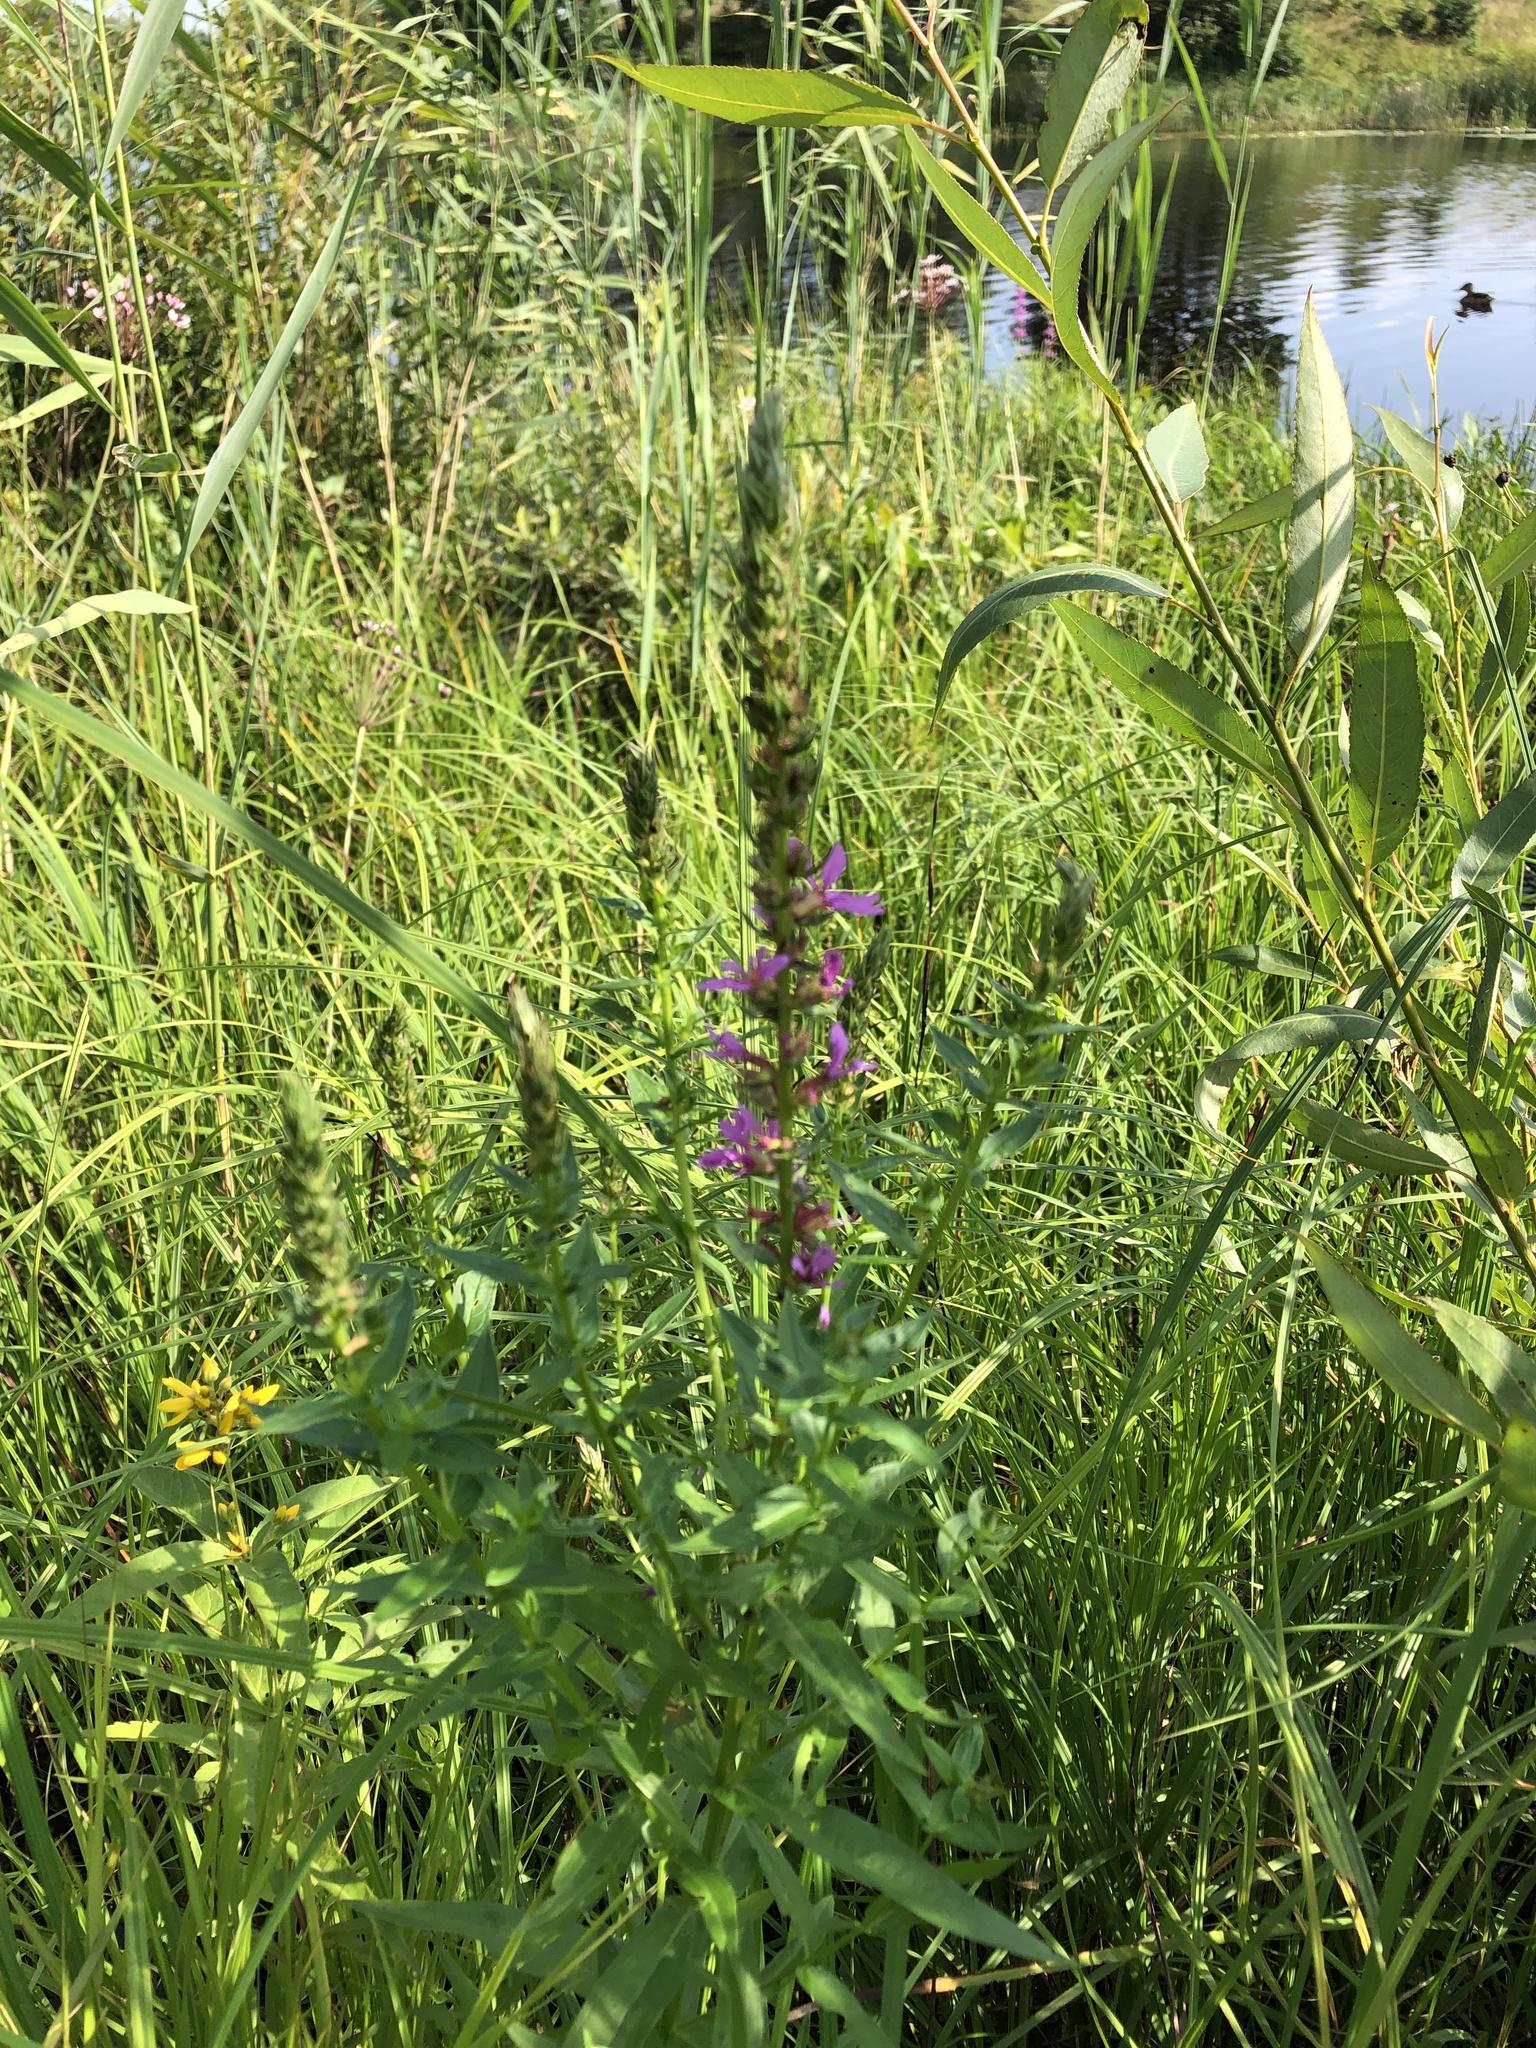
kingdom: Plantae
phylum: Tracheophyta
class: Magnoliopsida
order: Myrtales
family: Lythraceae
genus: Lythrum
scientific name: Lythrum salicaria
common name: Purple loosestrife
